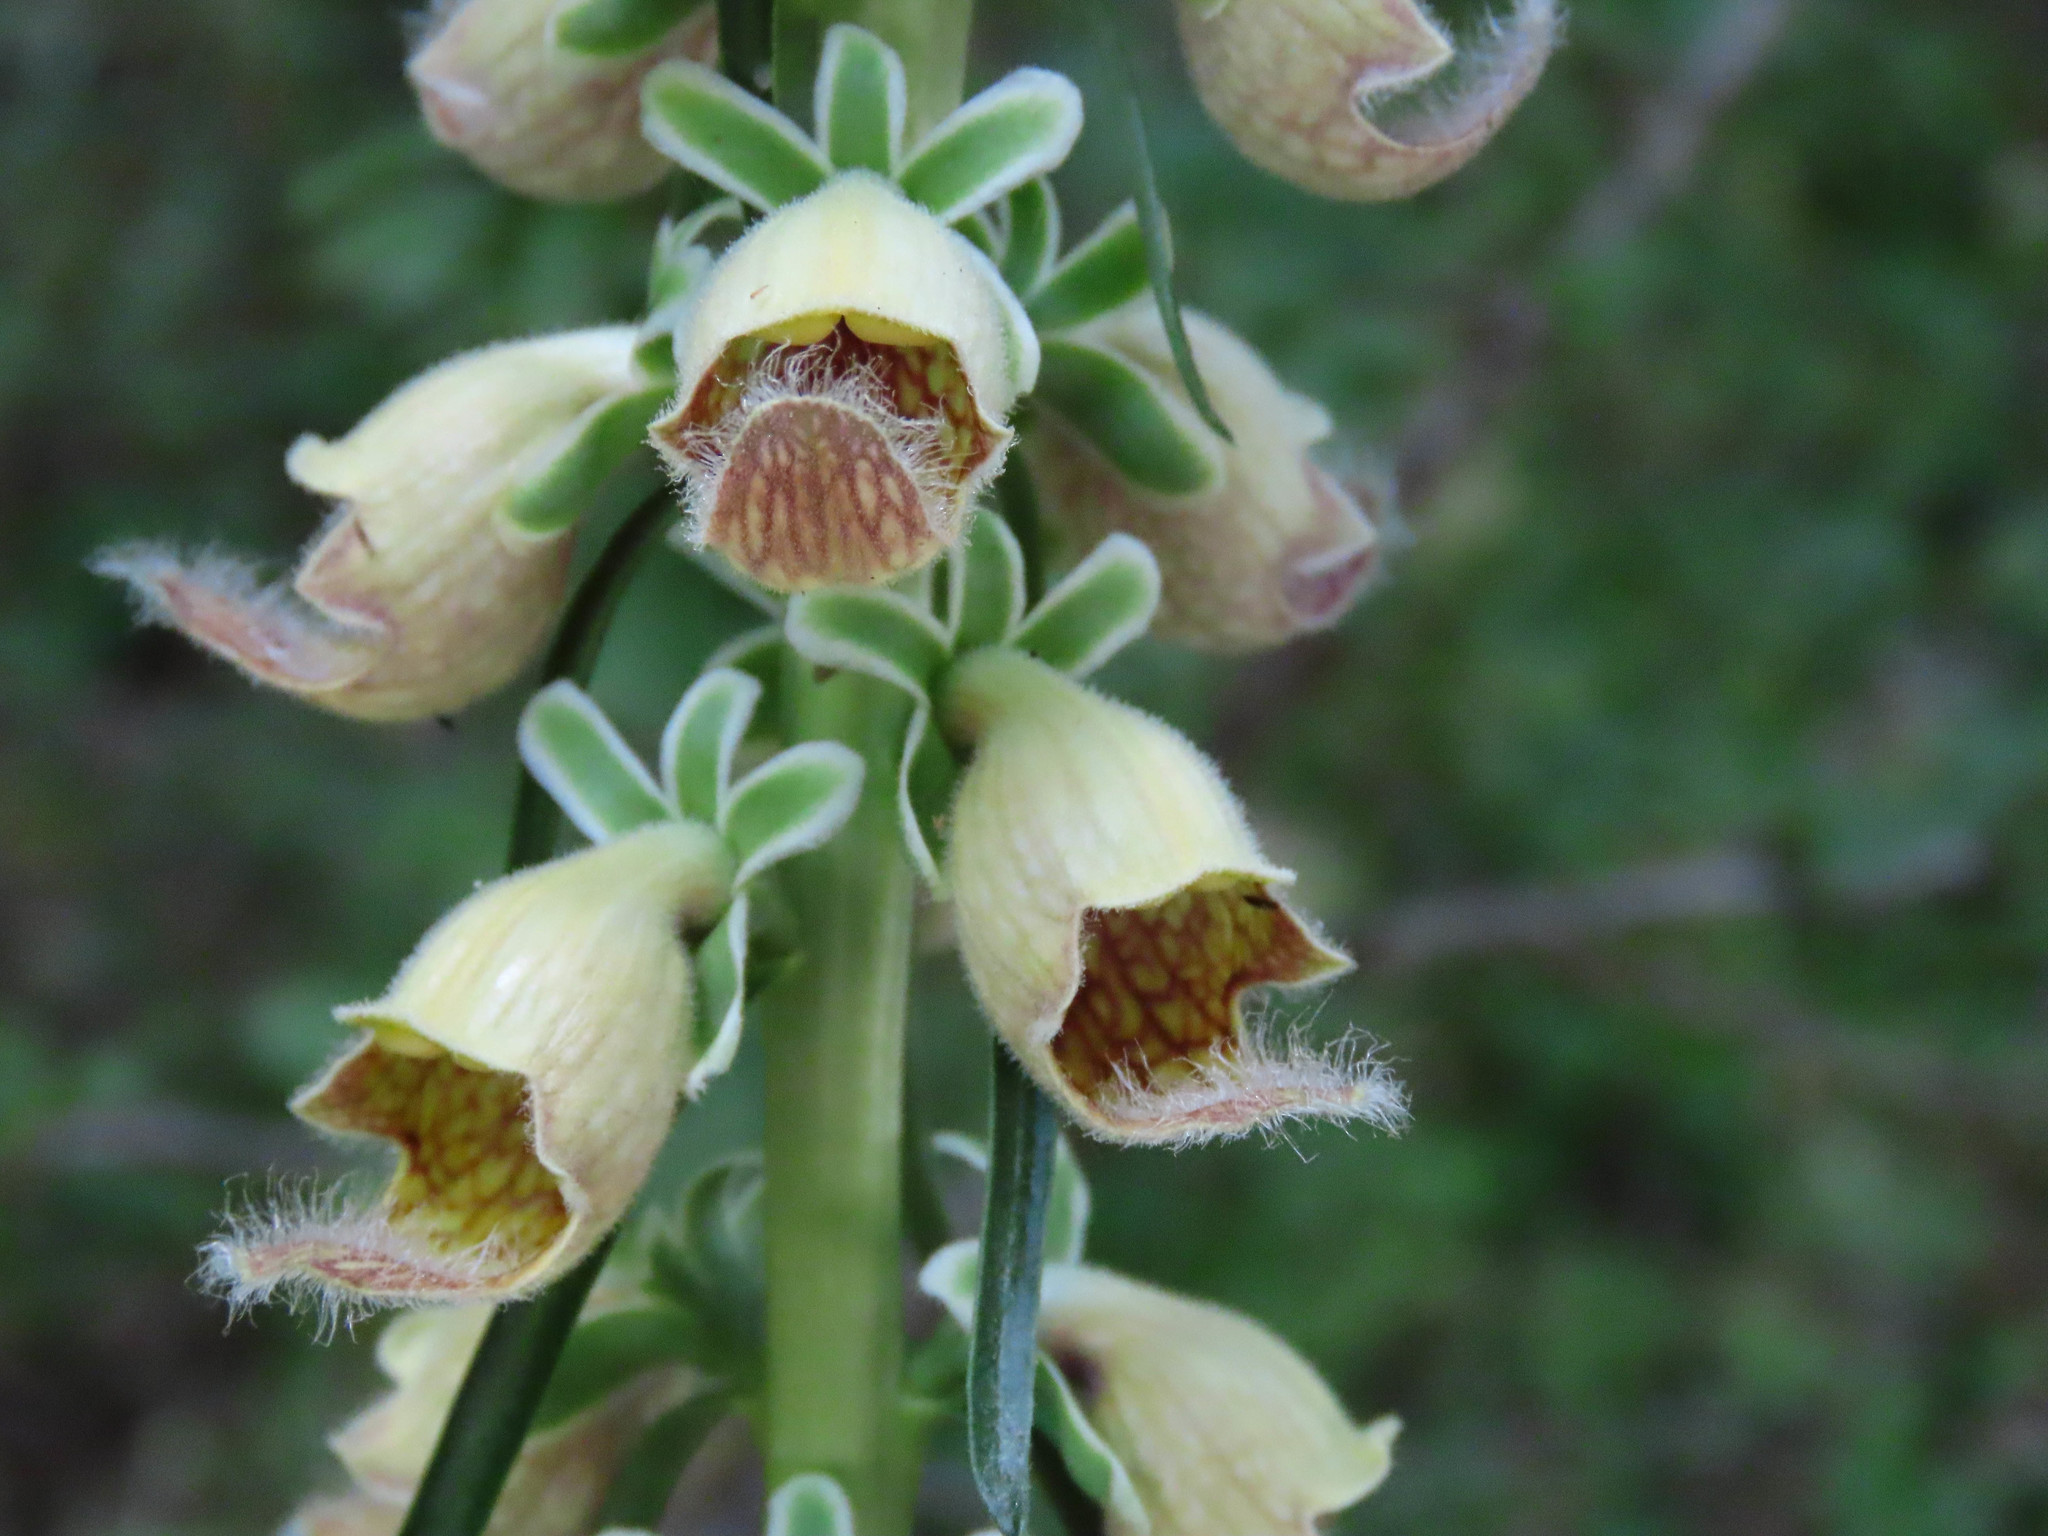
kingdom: Plantae
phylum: Tracheophyta
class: Magnoliopsida
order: Lamiales
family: Plantaginaceae
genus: Digitalis
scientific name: Digitalis ferruginea
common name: Rusty foxglove
